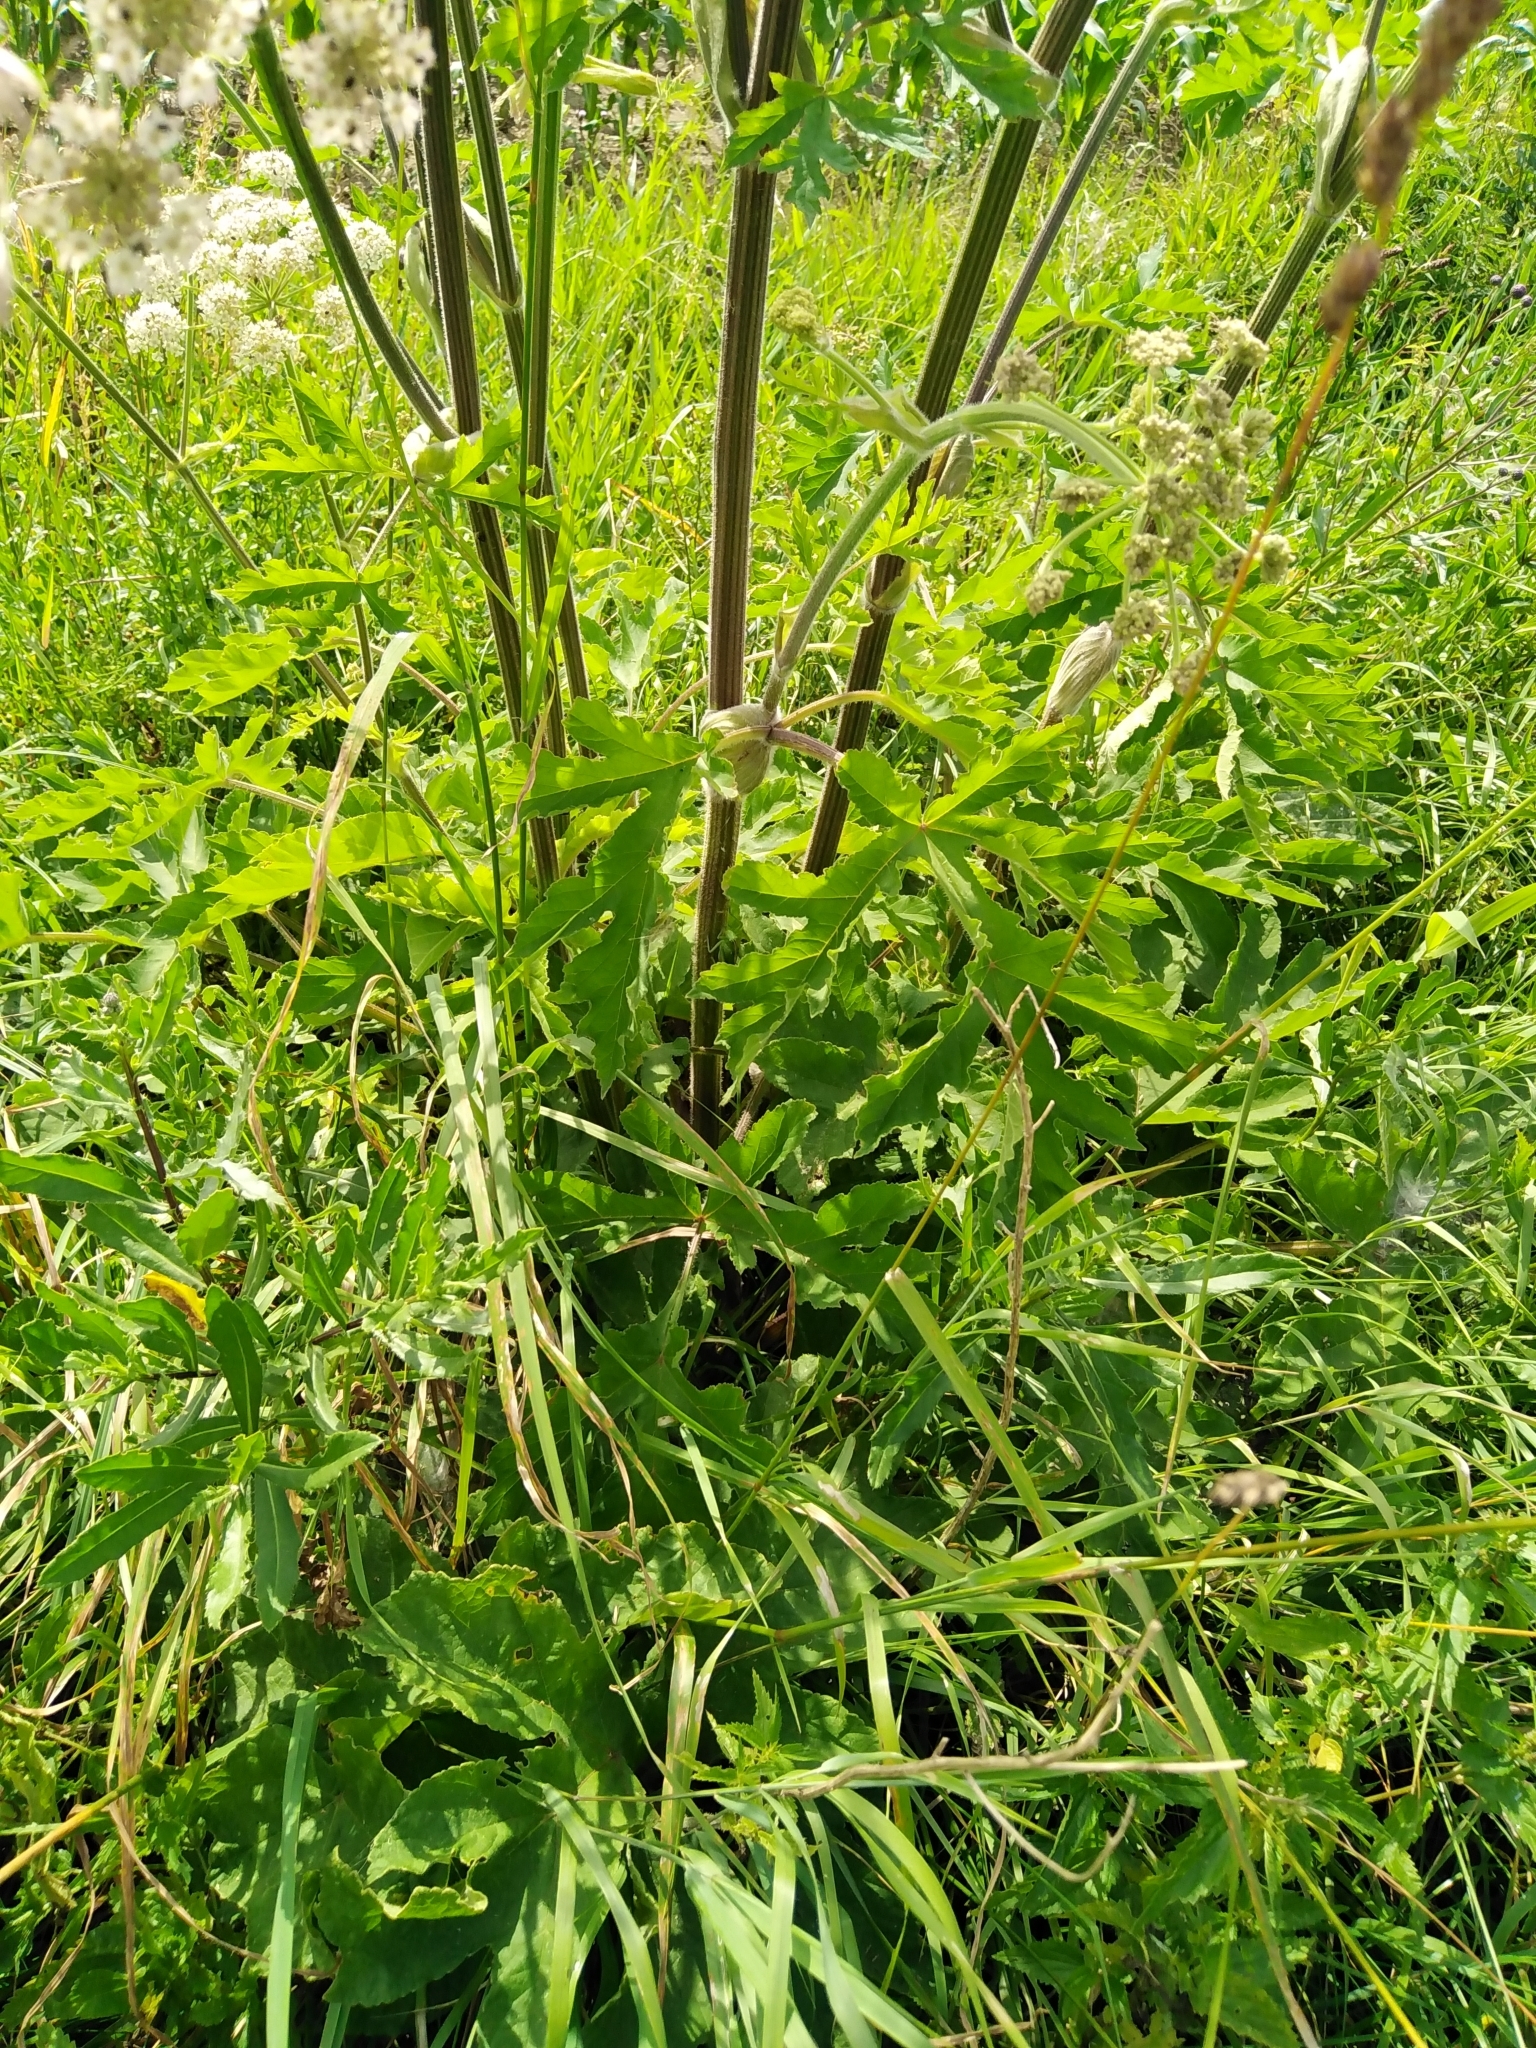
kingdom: Plantae
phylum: Tracheophyta
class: Magnoliopsida
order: Apiales
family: Apiaceae
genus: Heracleum
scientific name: Heracleum sphondylium
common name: Hogweed
